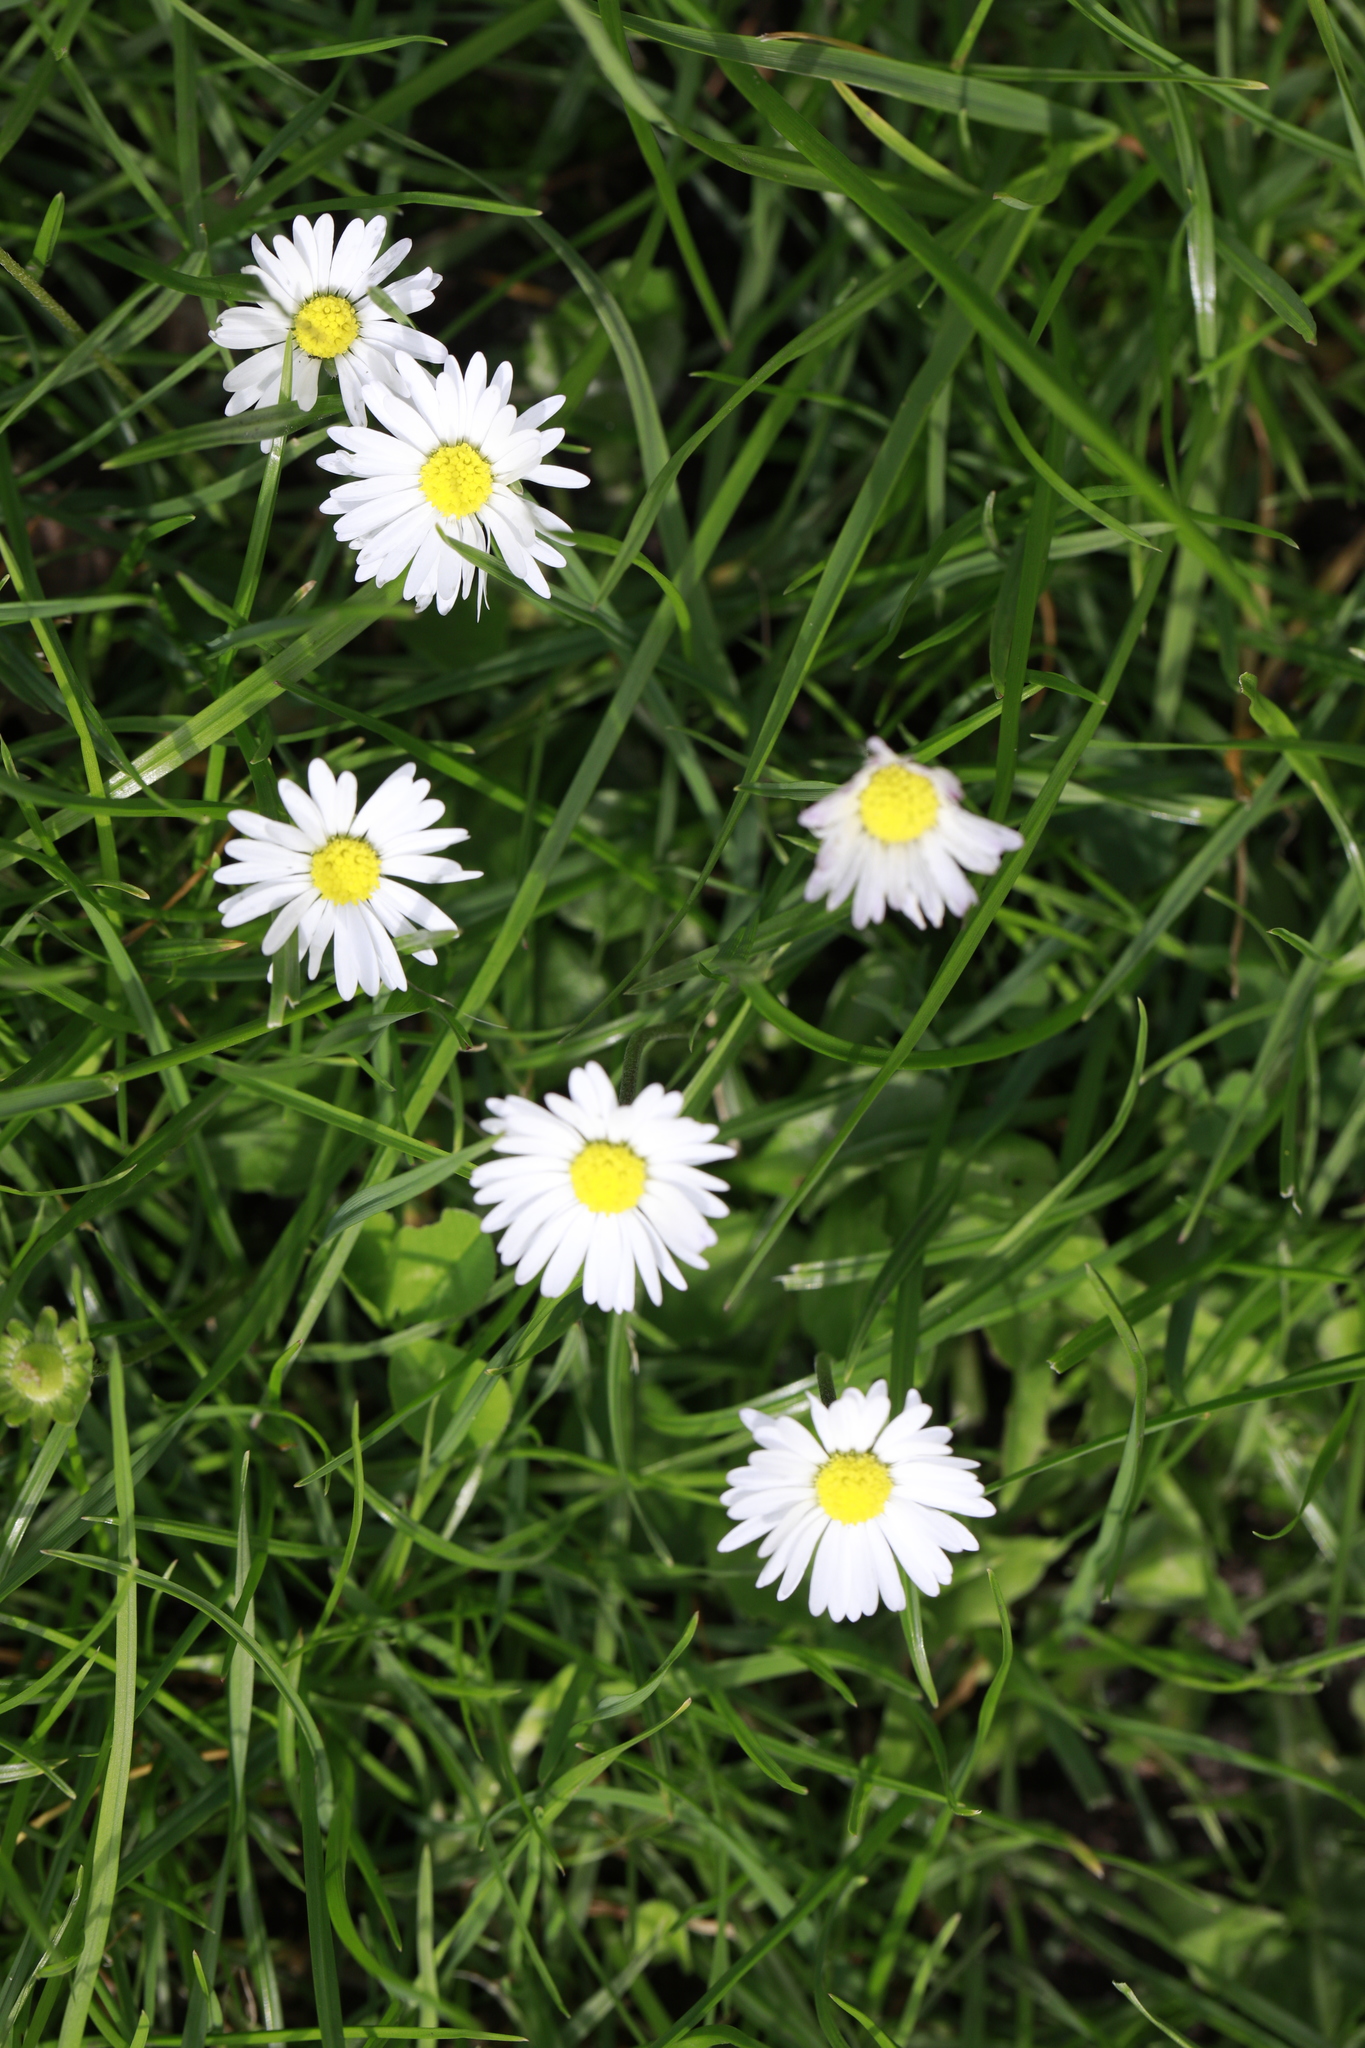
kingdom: Plantae
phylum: Tracheophyta
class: Magnoliopsida
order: Asterales
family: Asteraceae
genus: Bellis
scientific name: Bellis perennis
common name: Lawndaisy
